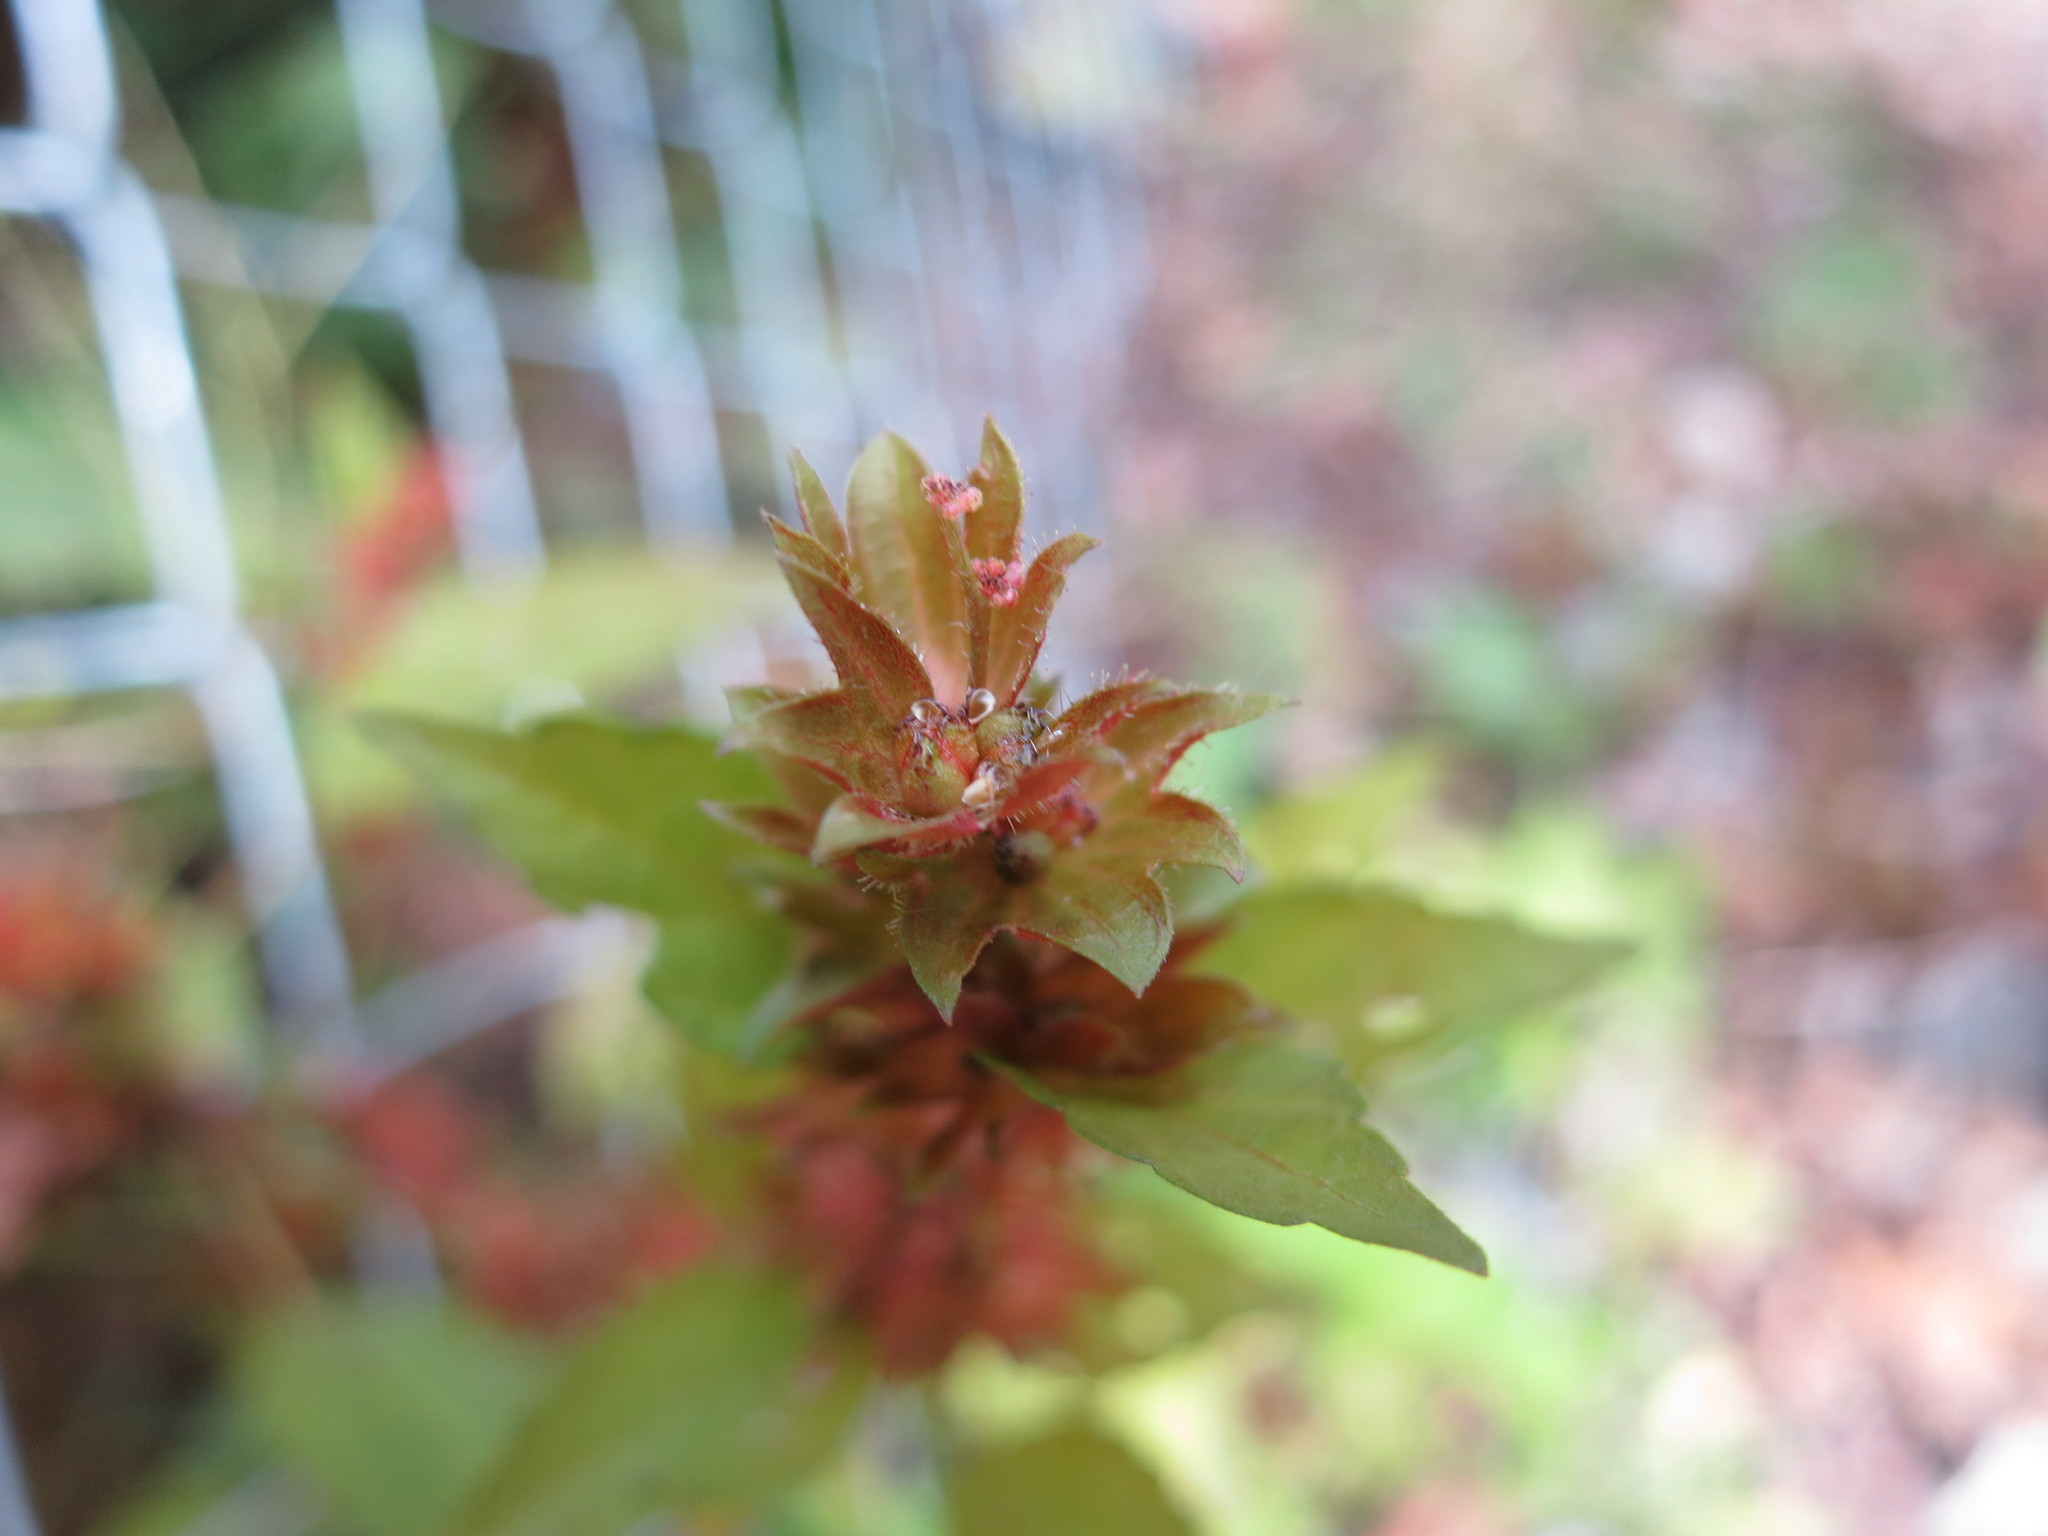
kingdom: Plantae
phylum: Tracheophyta
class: Magnoliopsida
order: Malpighiales
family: Euphorbiaceae
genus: Acalypha
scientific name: Acalypha rhomboidea
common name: Rhombic copperleaf
